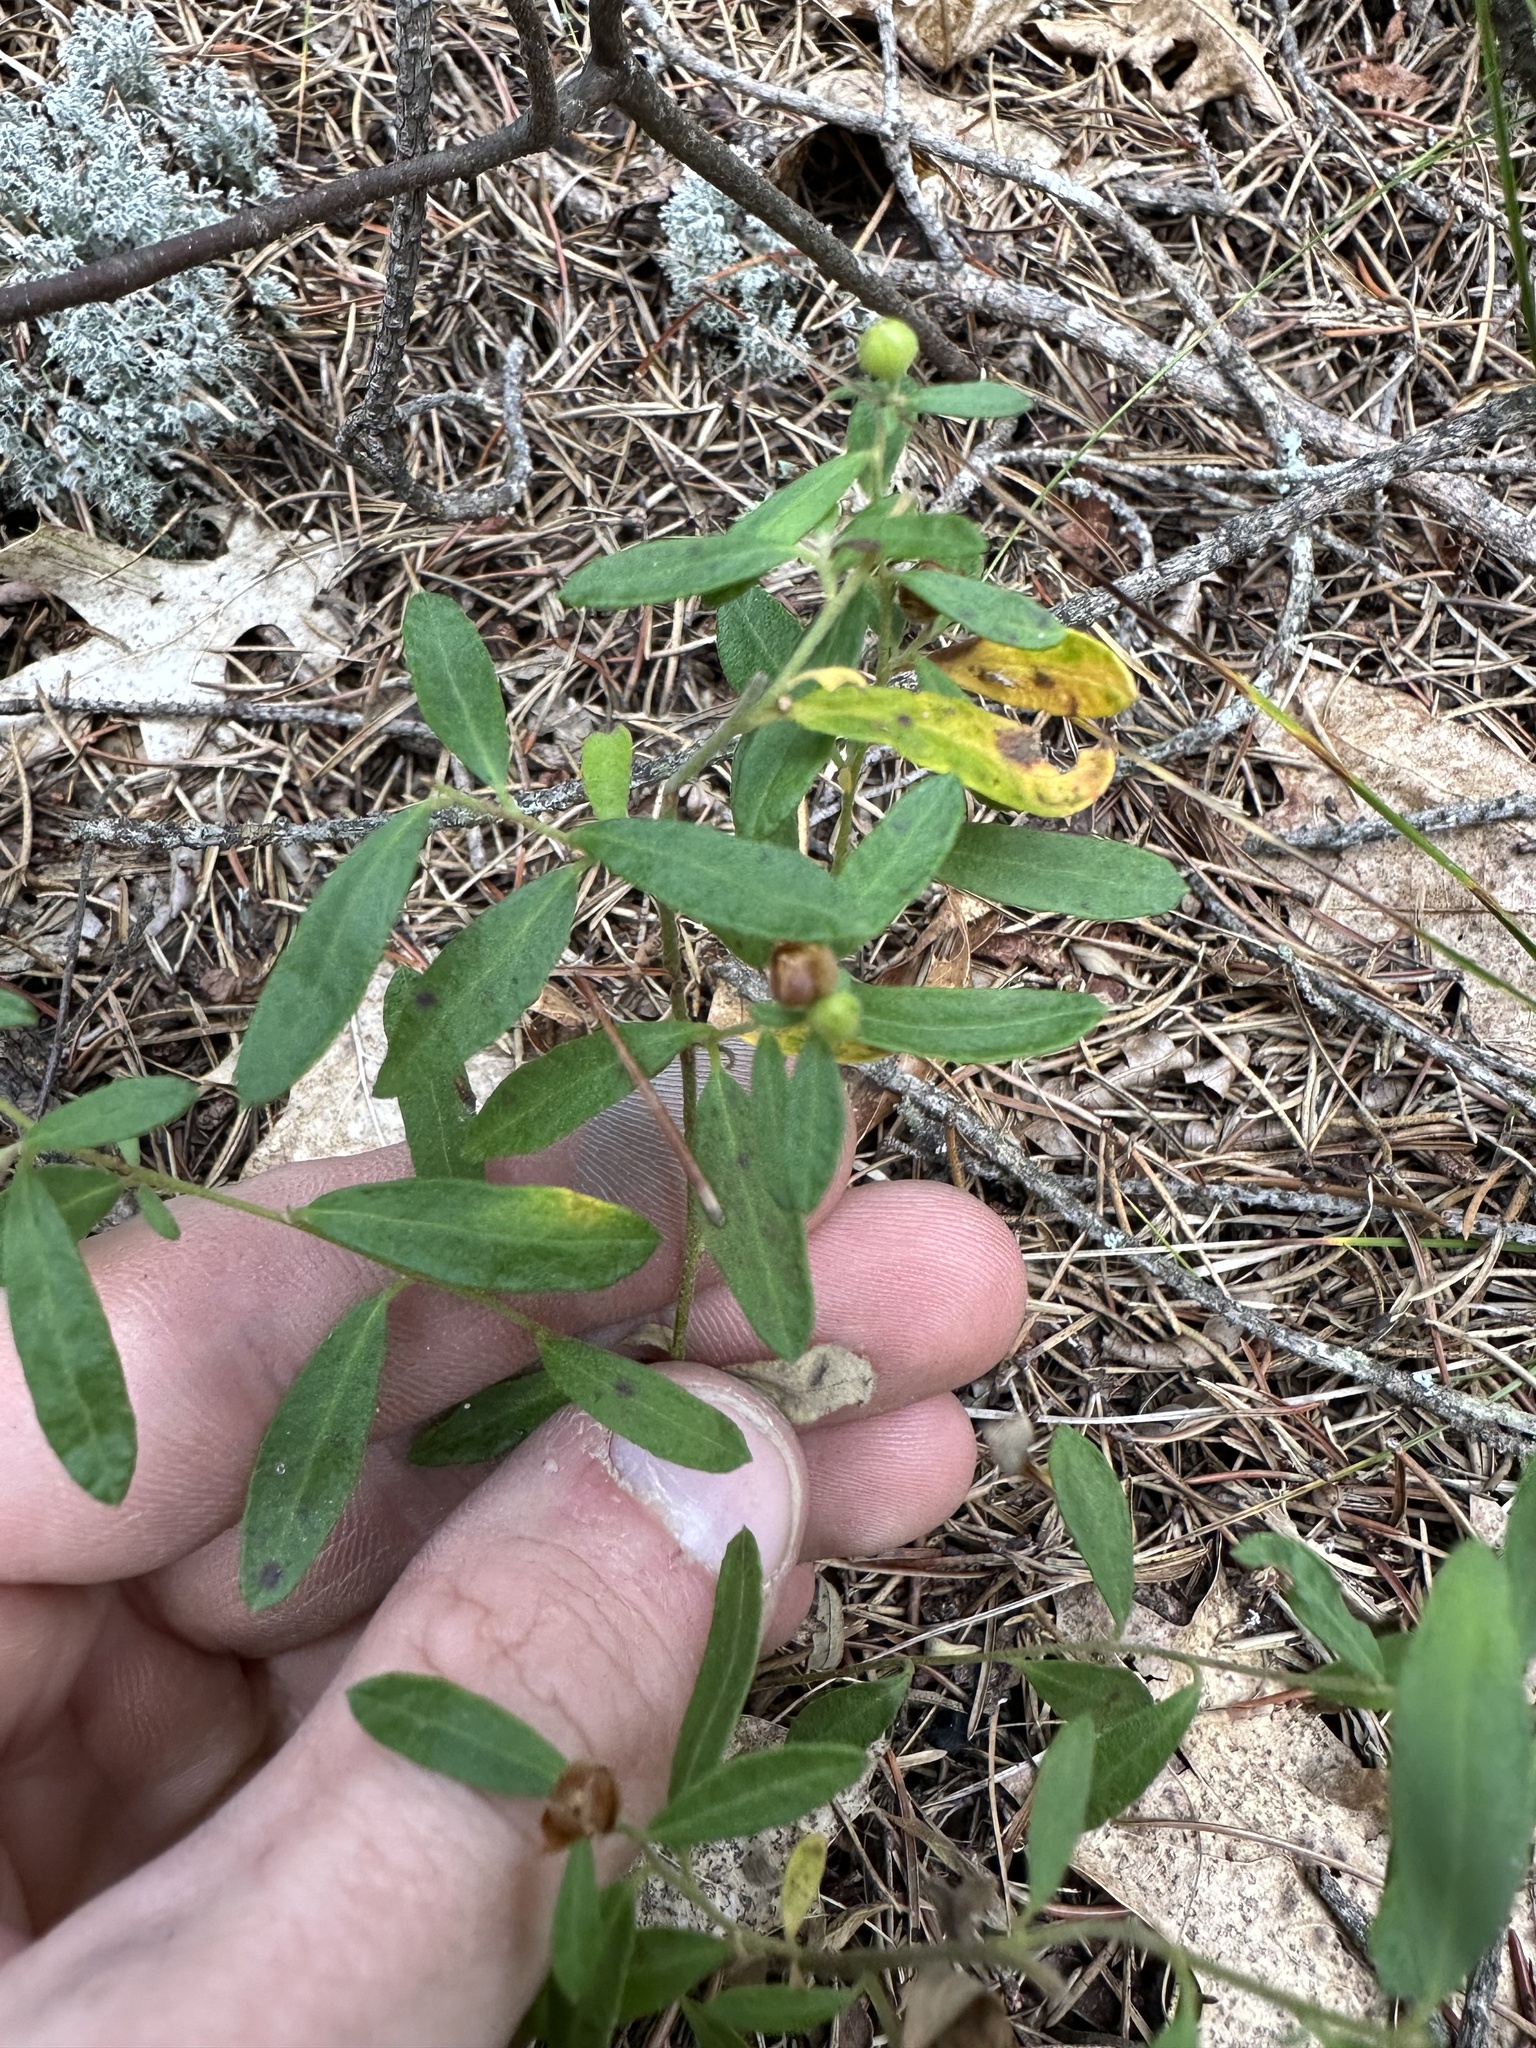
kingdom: Plantae
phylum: Tracheophyta
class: Magnoliopsida
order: Malvales
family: Cistaceae
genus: Crocanthemum
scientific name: Crocanthemum canadense
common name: Canada frostweed
